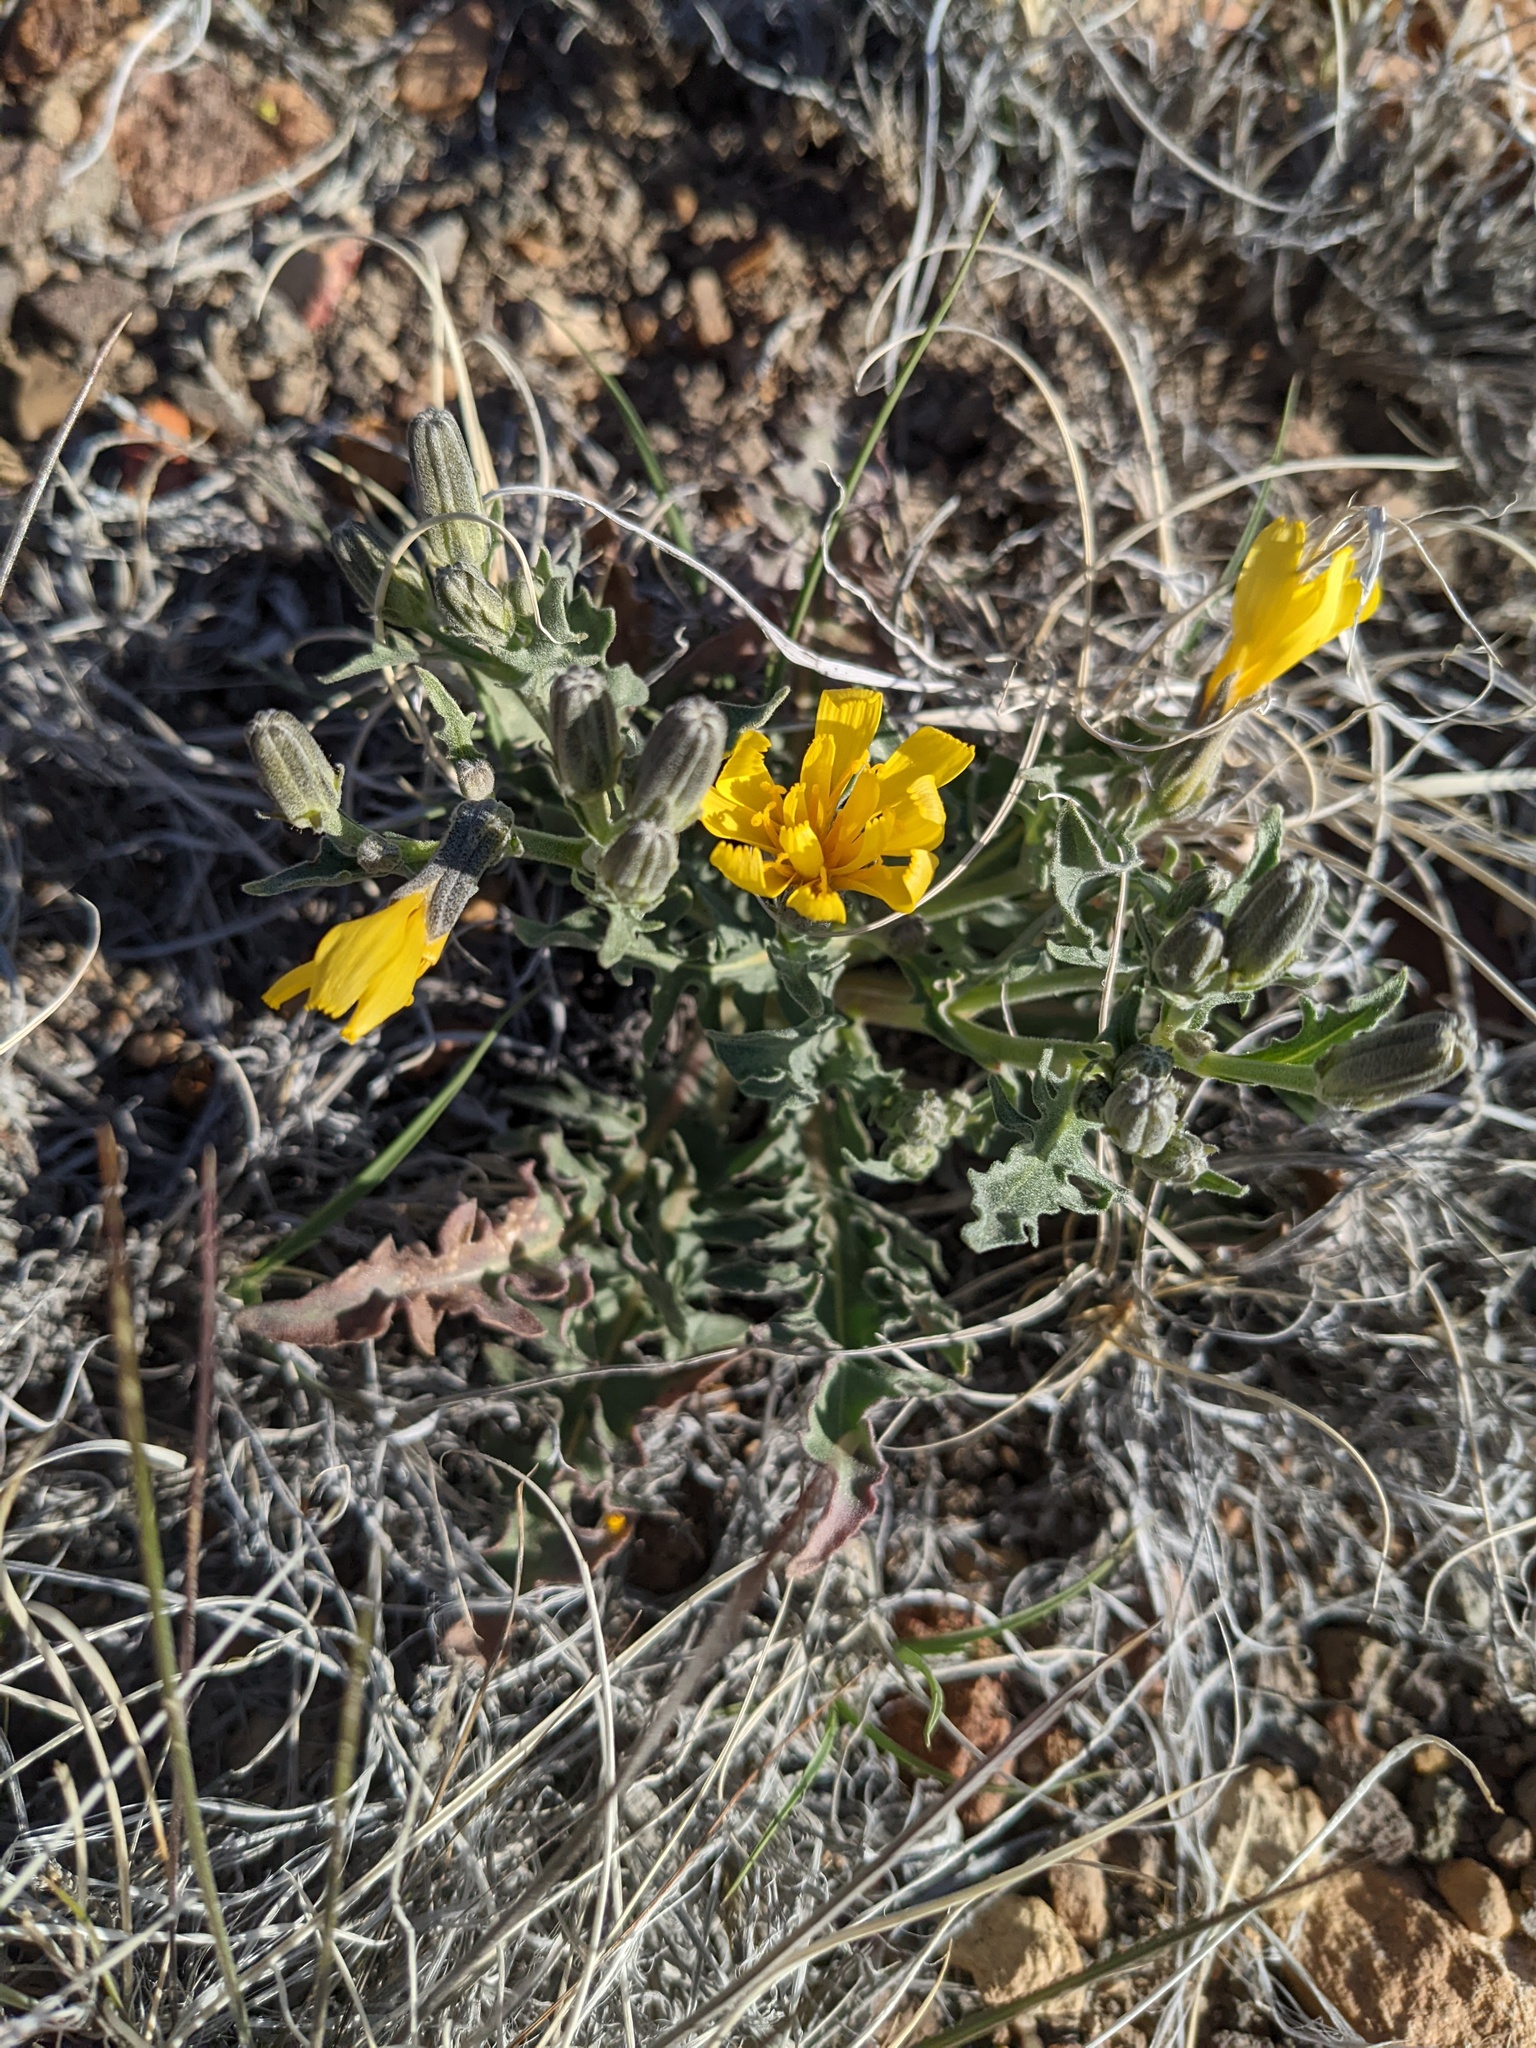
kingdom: Plantae
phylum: Tracheophyta
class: Magnoliopsida
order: Asterales
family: Asteraceae
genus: Crepis
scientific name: Crepis occidentalis
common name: Gray hawk's-beard
